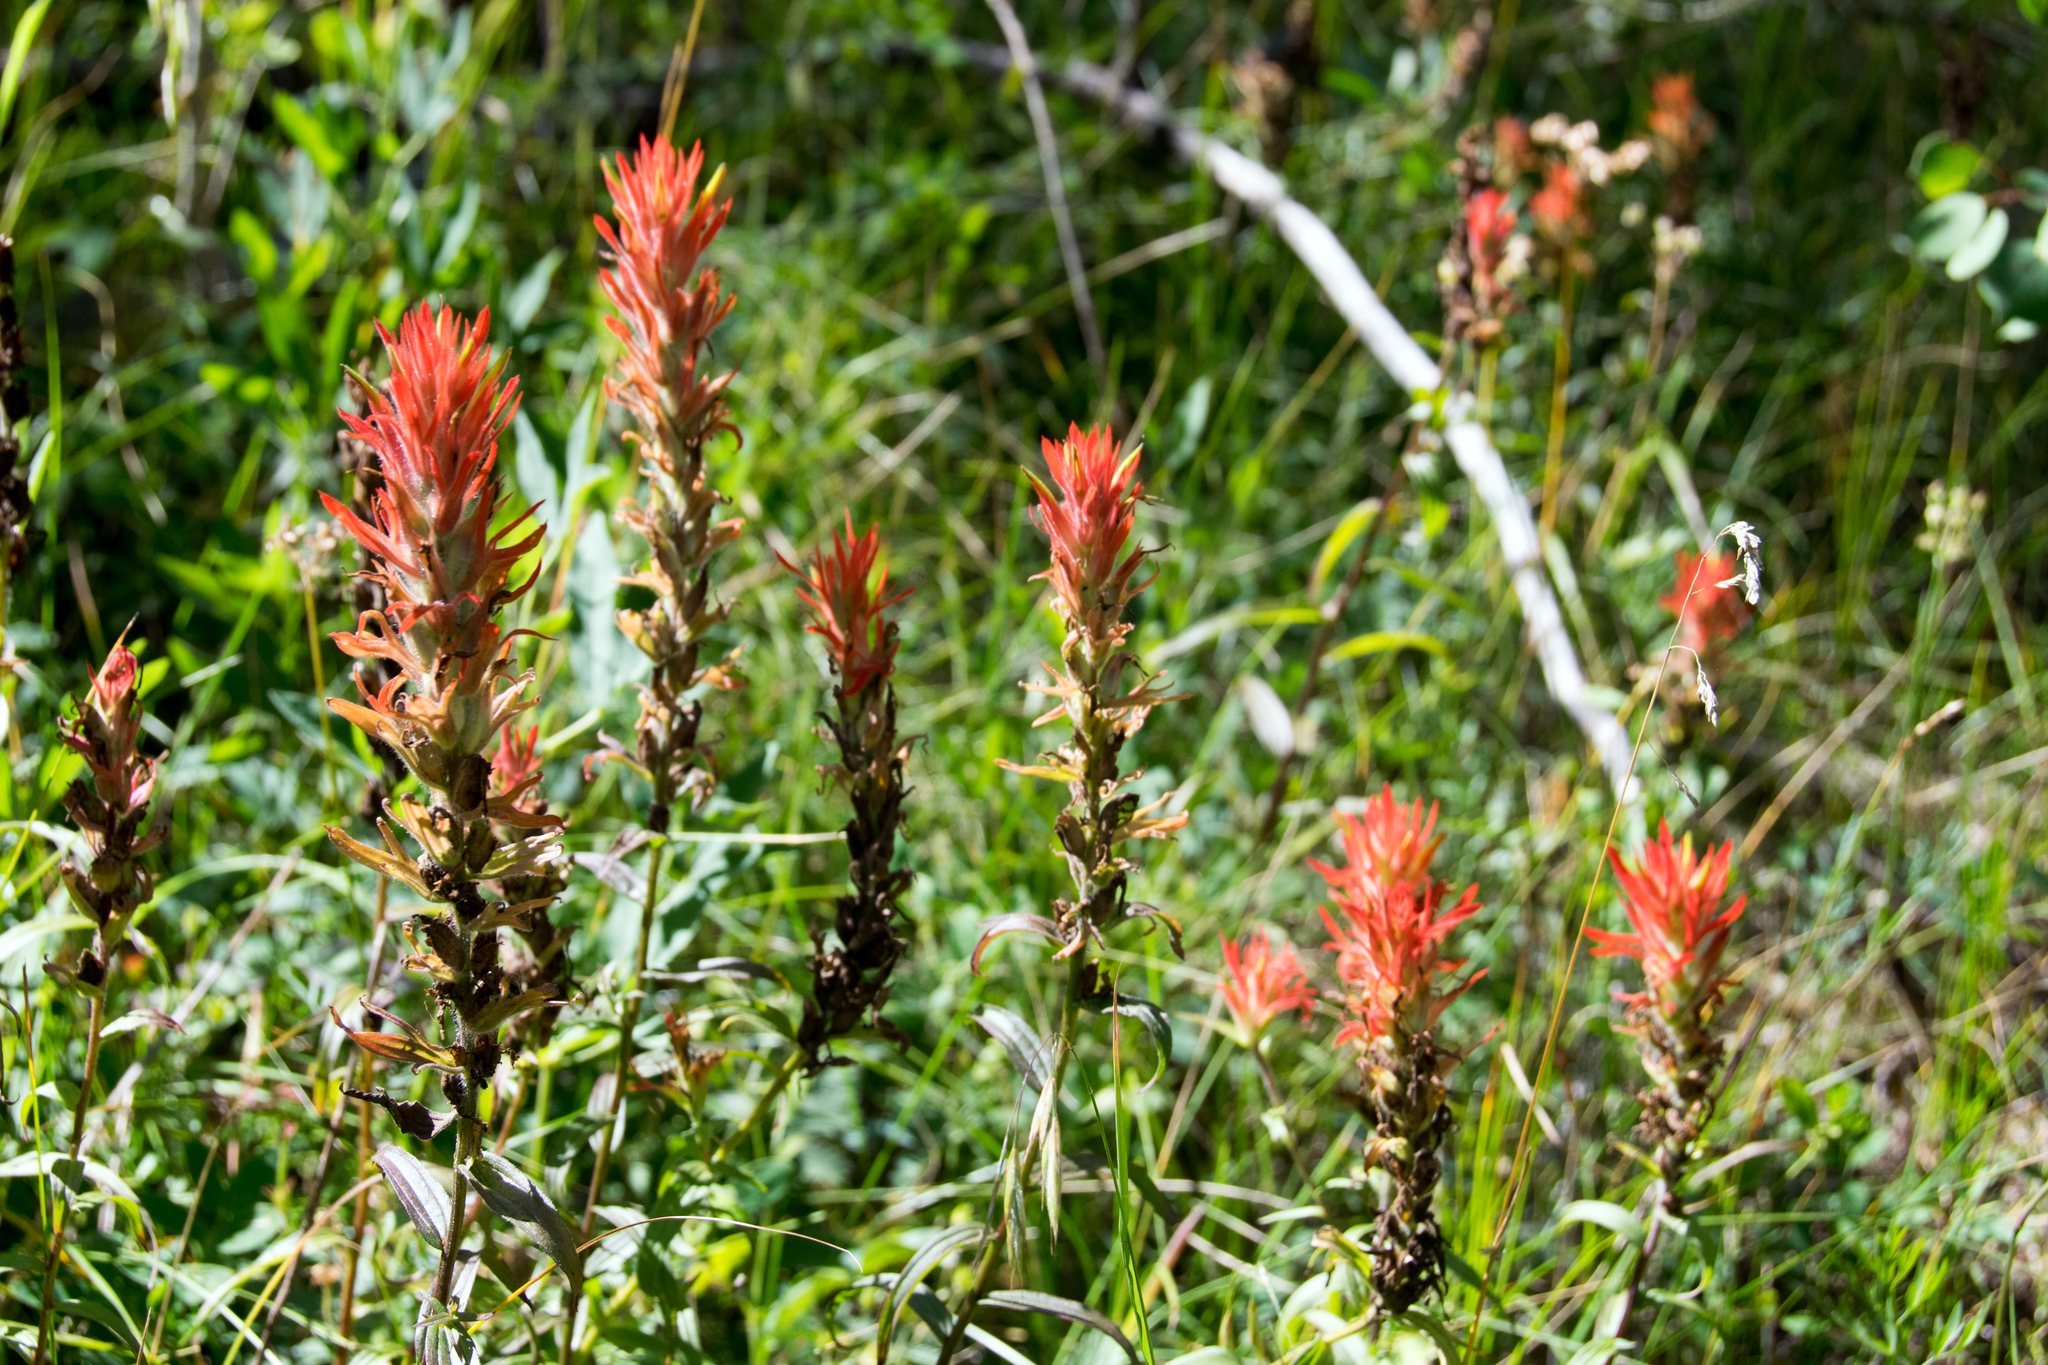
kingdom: Plantae
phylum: Tracheophyta
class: Magnoliopsida
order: Lamiales
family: Orobanchaceae
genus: Castilleja
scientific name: Castilleja miniata
